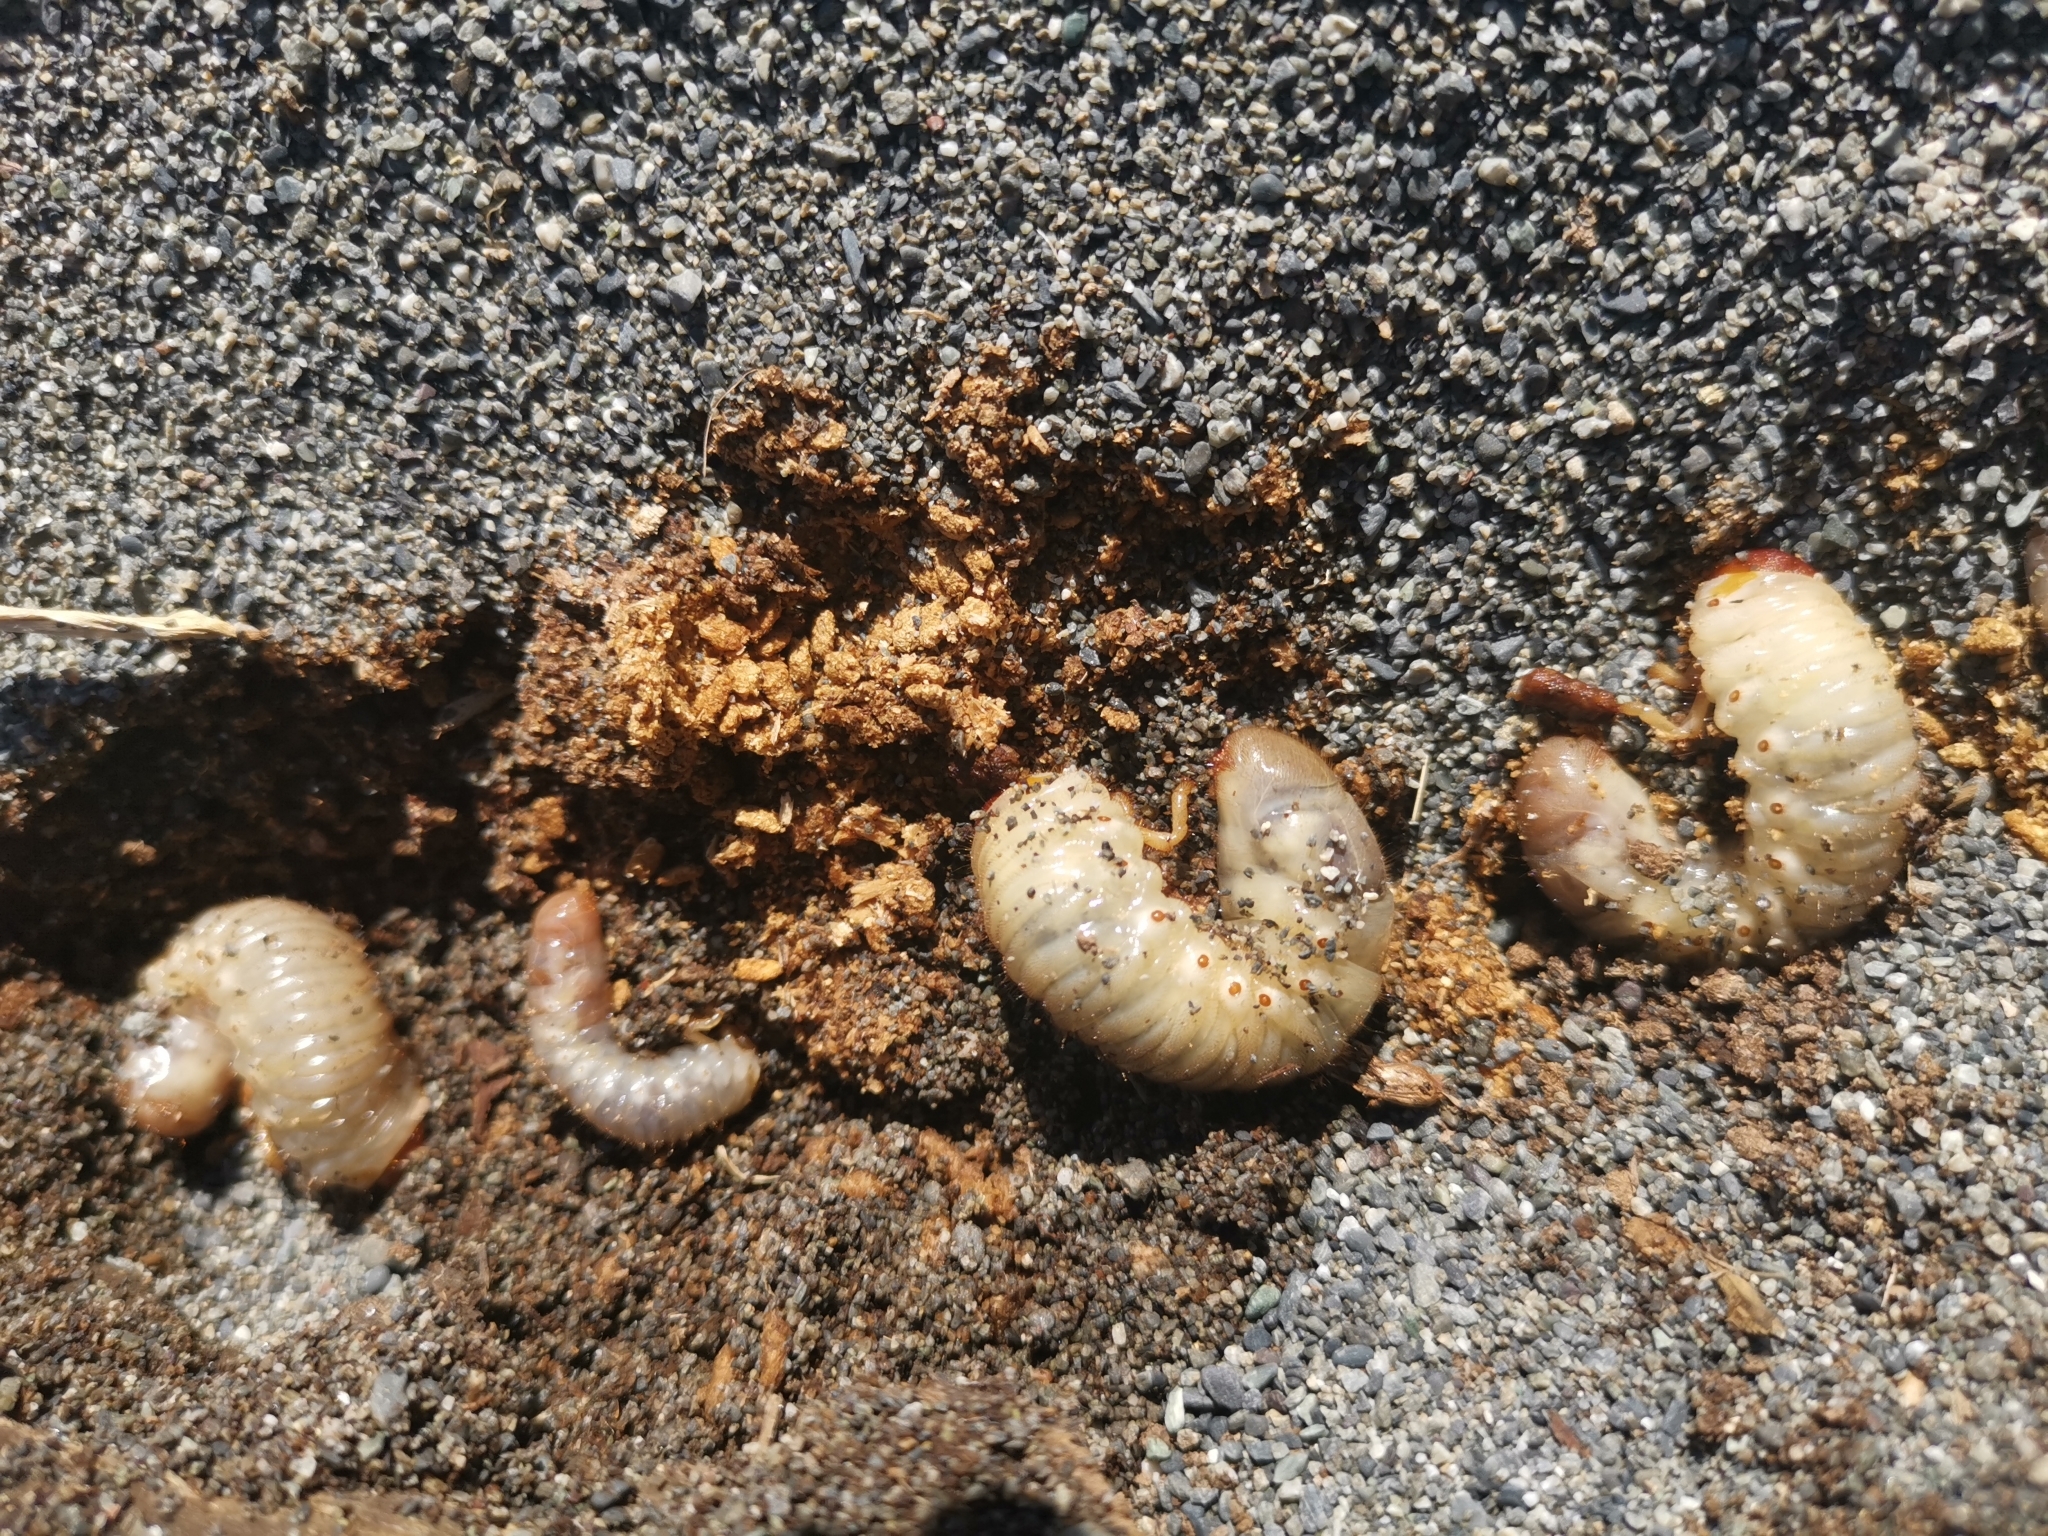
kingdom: Animalia
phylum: Arthropoda
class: Insecta
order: Coleoptera
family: Scarabaeidae
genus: Pericoptus
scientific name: Pericoptus truncatus
